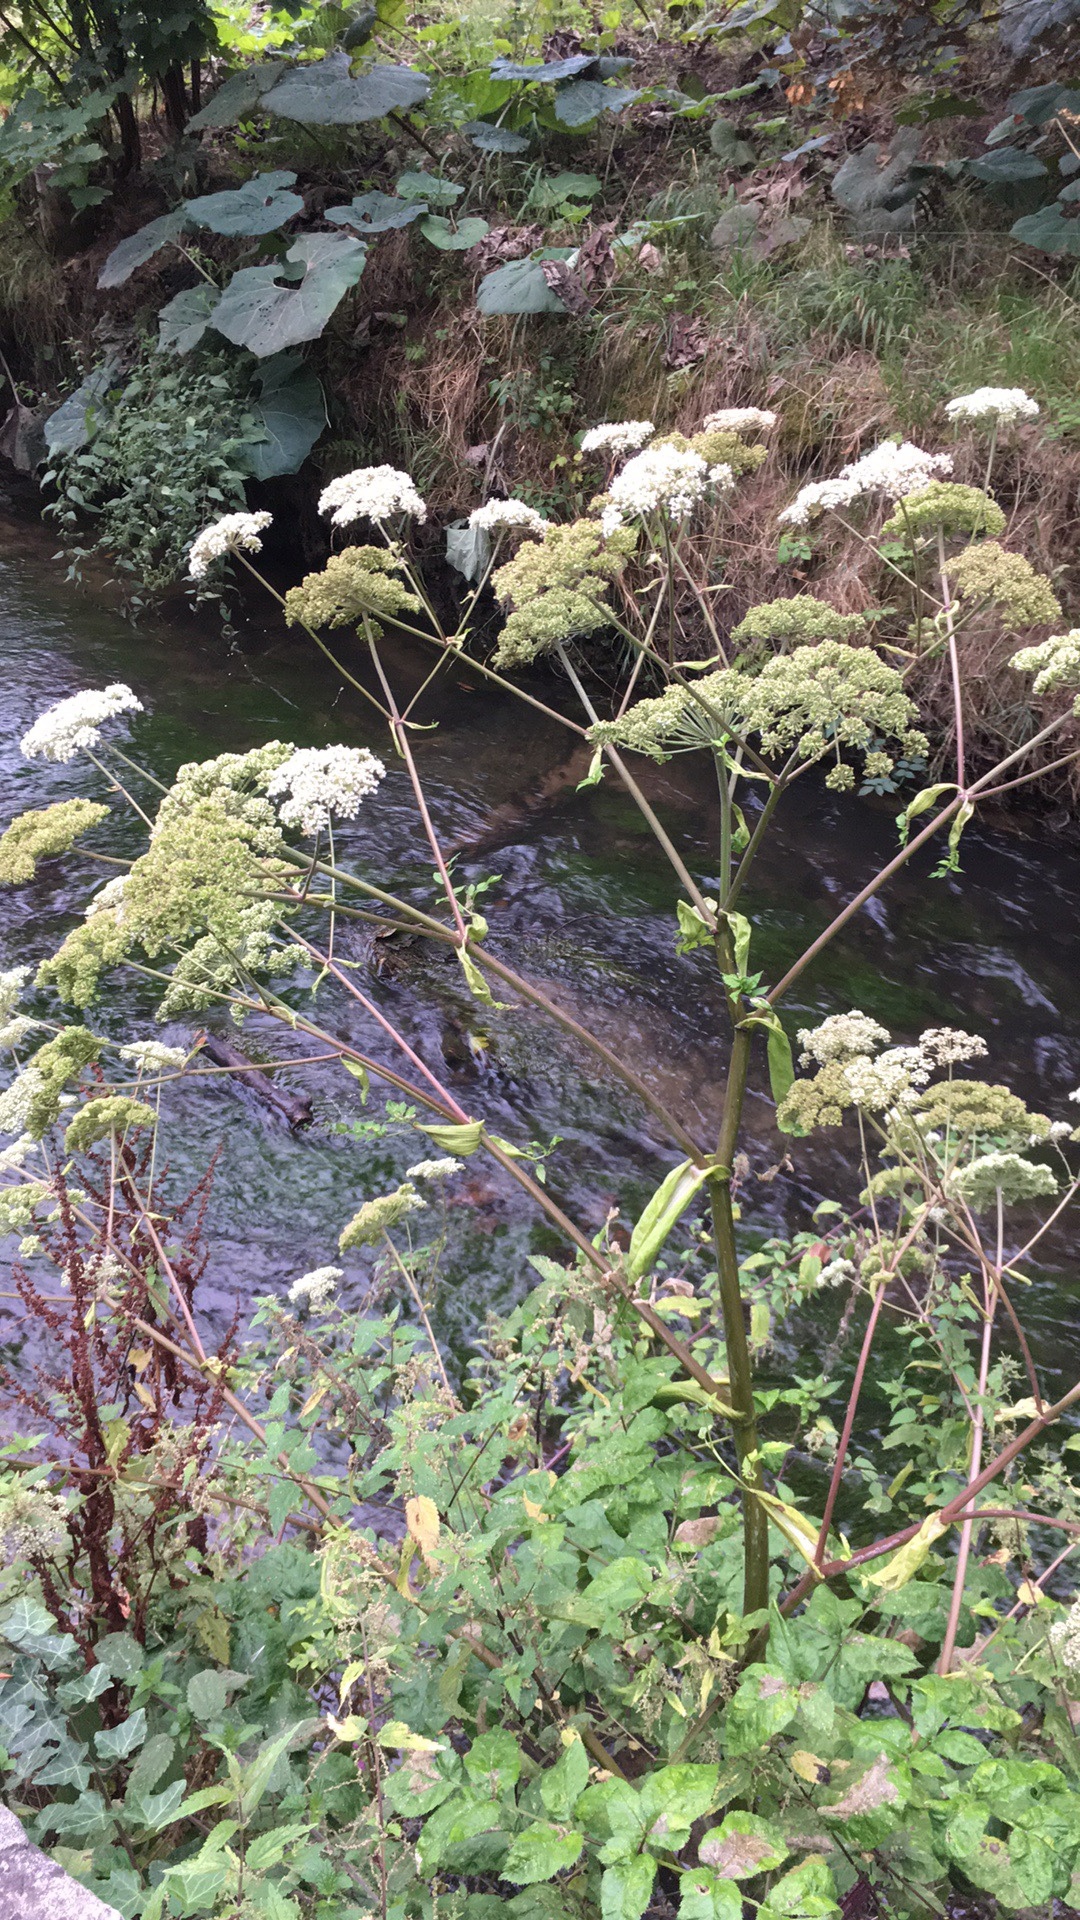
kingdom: Plantae
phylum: Tracheophyta
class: Magnoliopsida
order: Apiales
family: Apiaceae
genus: Angelica
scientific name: Angelica sylvestris
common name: Wild angelica
